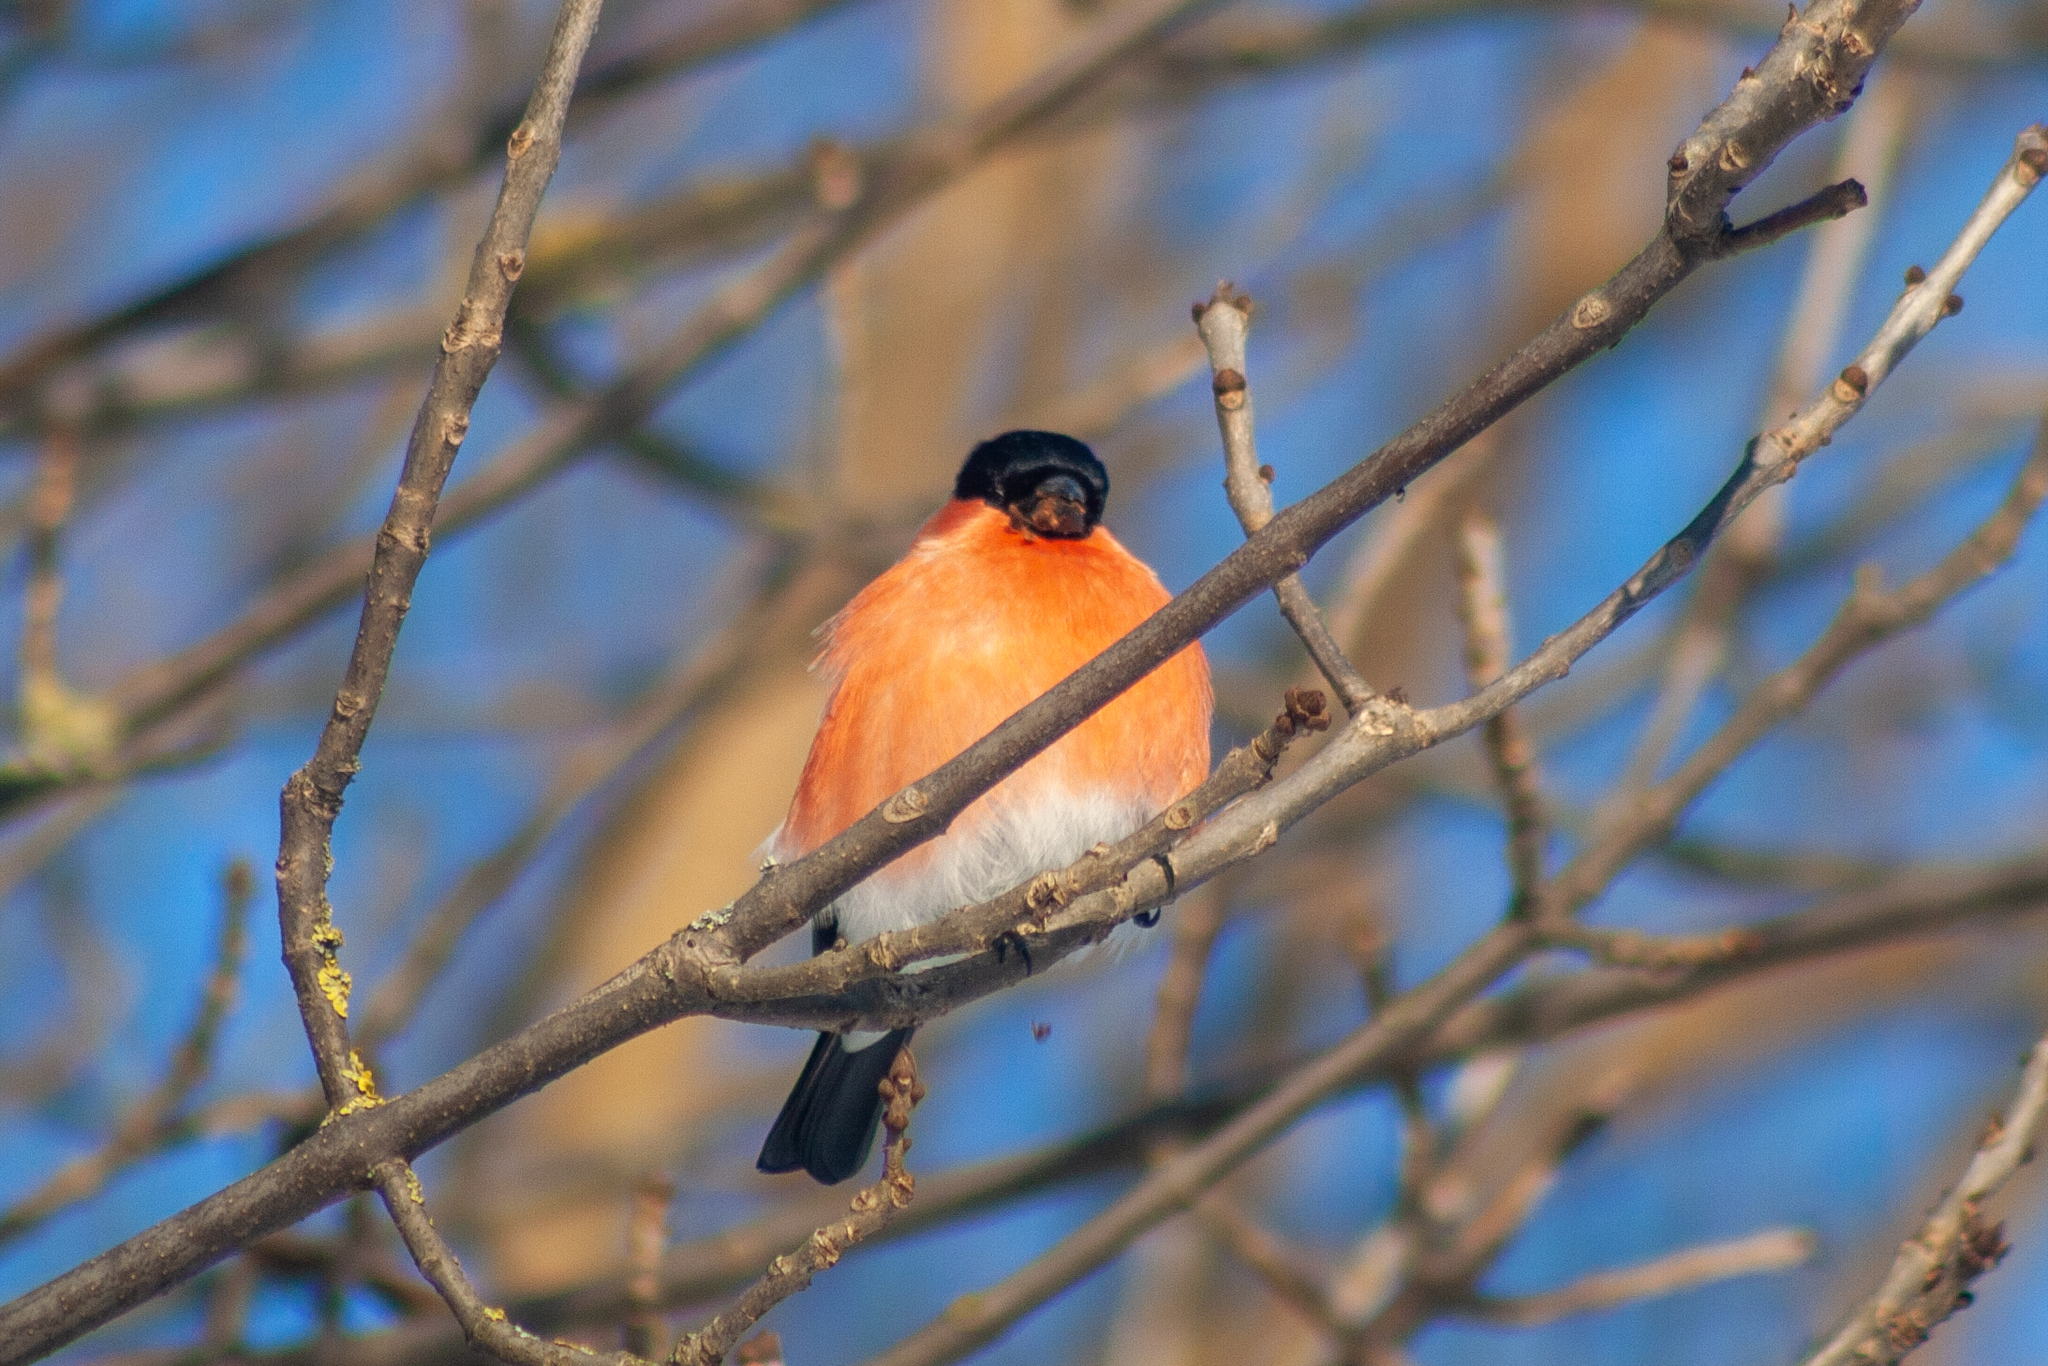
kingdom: Animalia
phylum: Chordata
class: Aves
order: Passeriformes
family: Fringillidae
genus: Pyrrhula
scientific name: Pyrrhula pyrrhula
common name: Eurasian bullfinch
